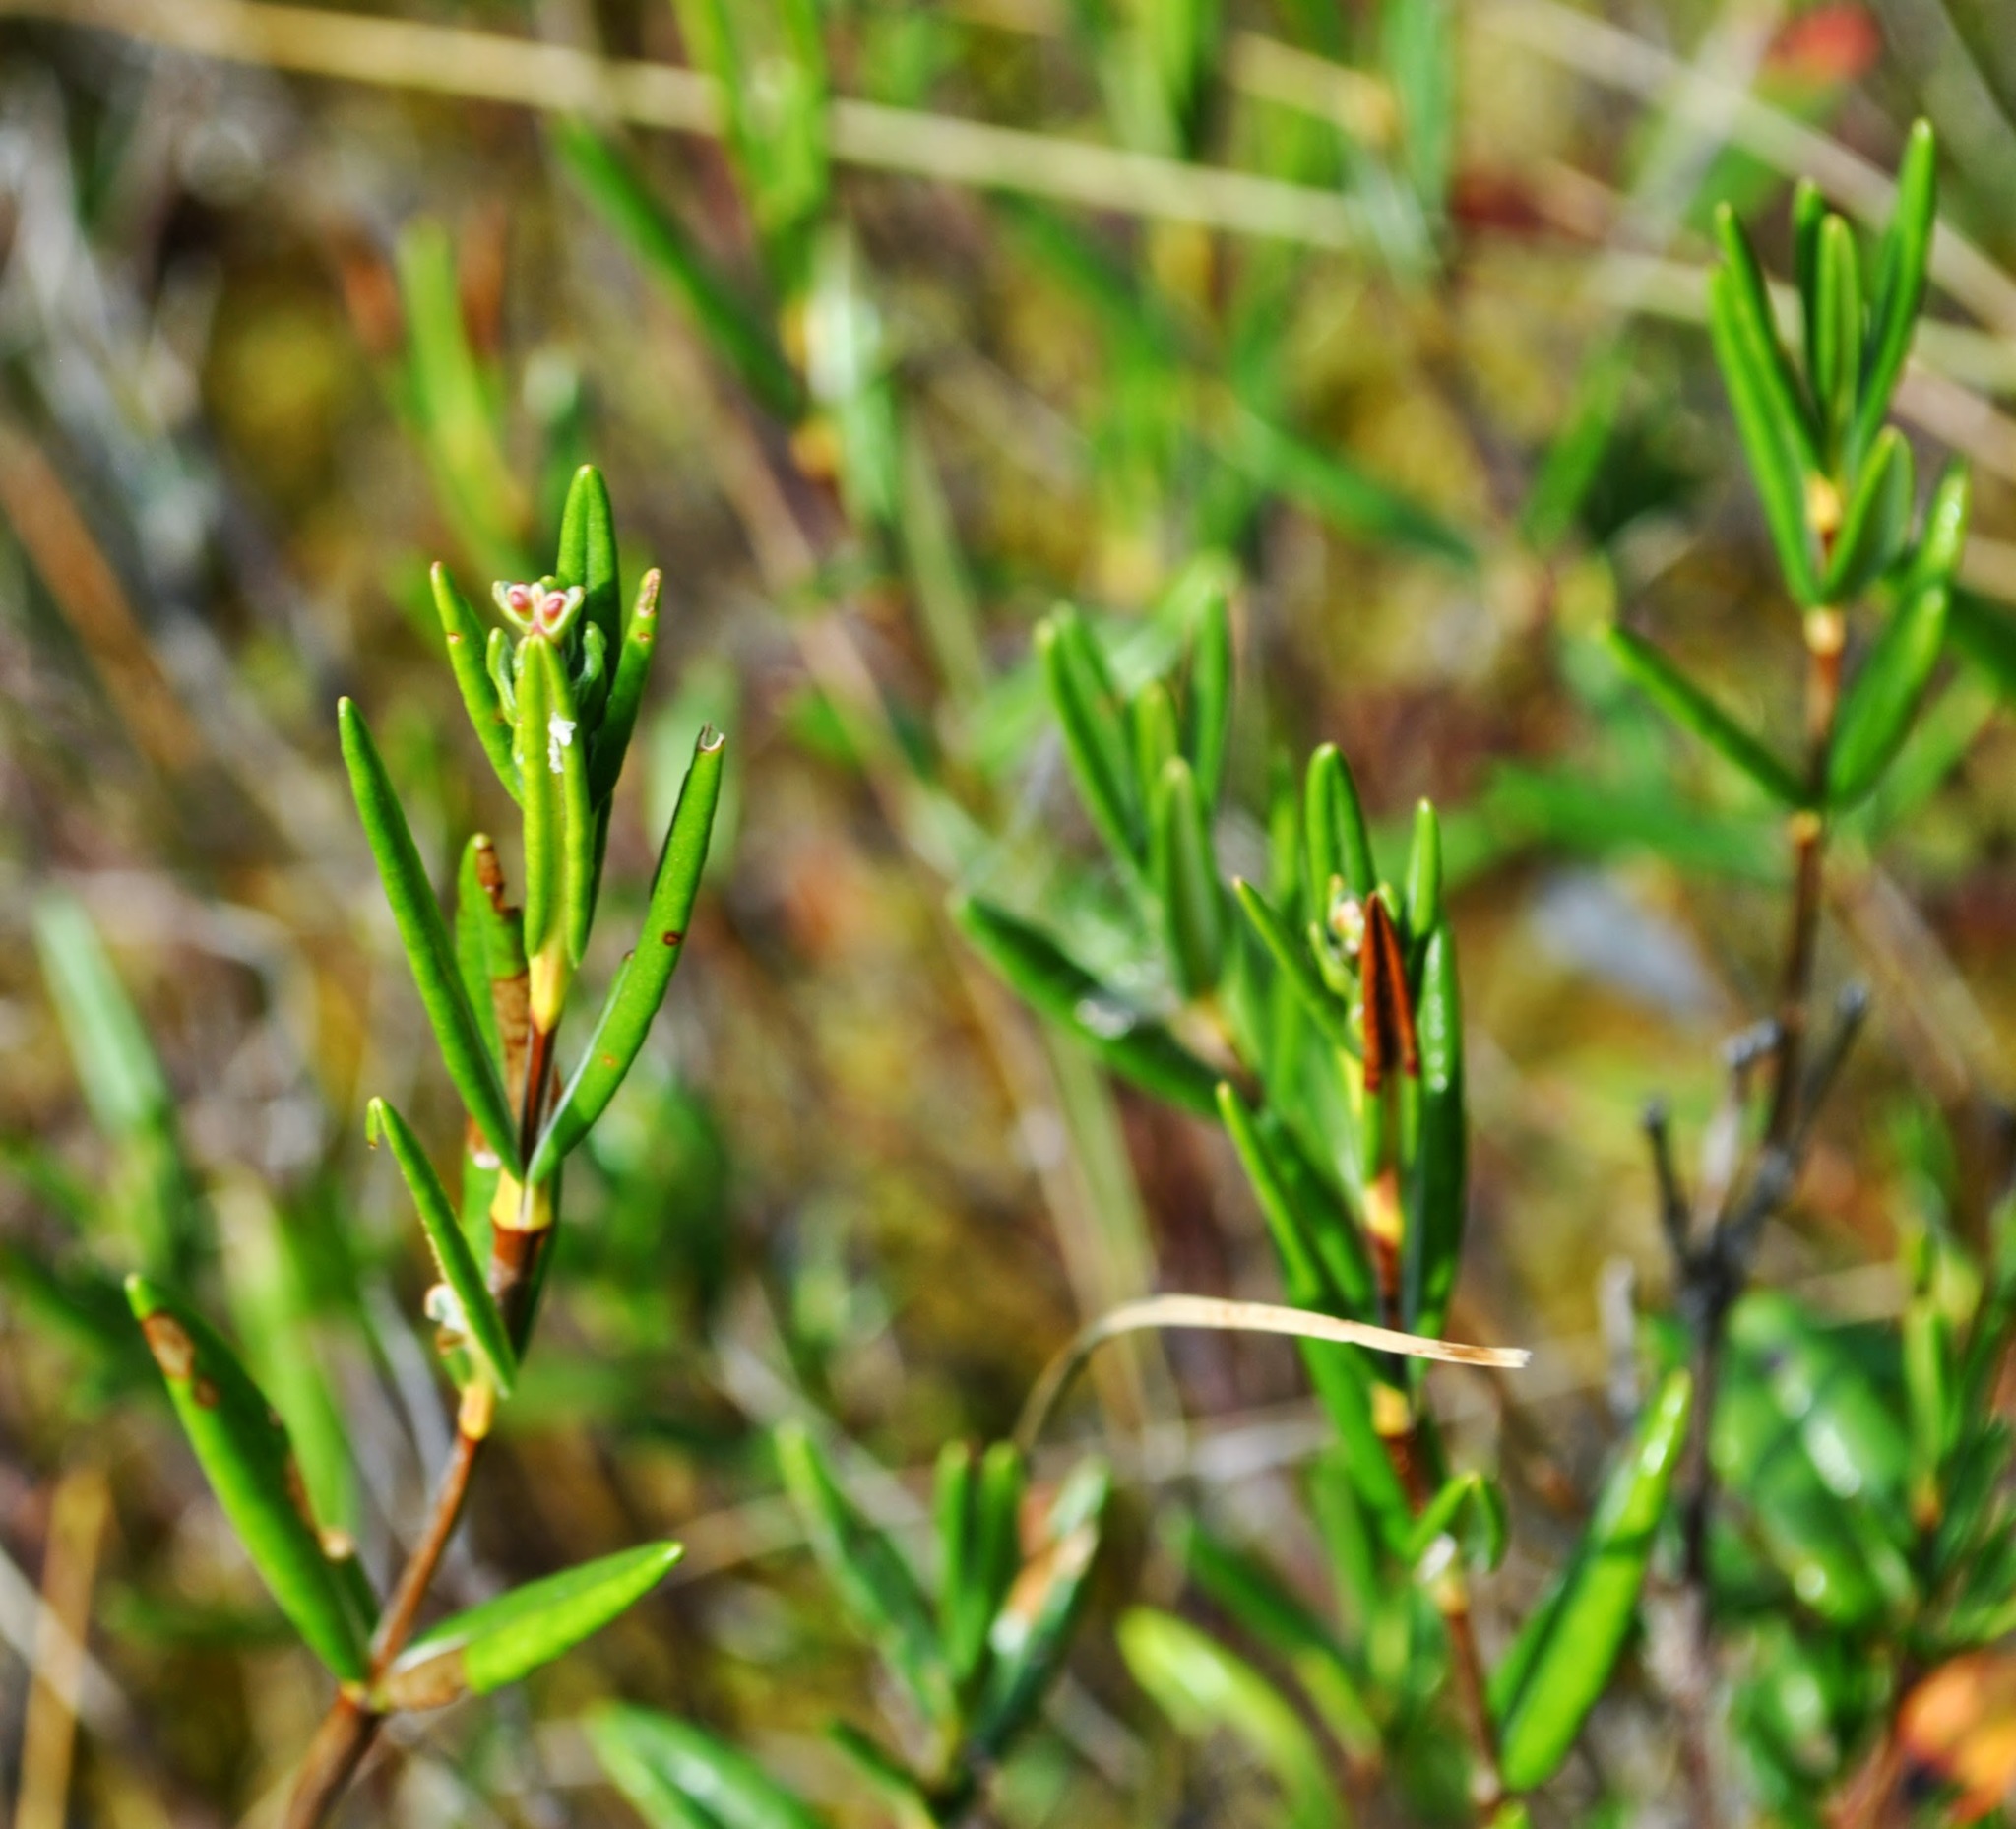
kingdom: Plantae
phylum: Tracheophyta
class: Magnoliopsida
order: Ericales
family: Ericaceae
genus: Kalmia
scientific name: Kalmia polifolia
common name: Bog-laurel
